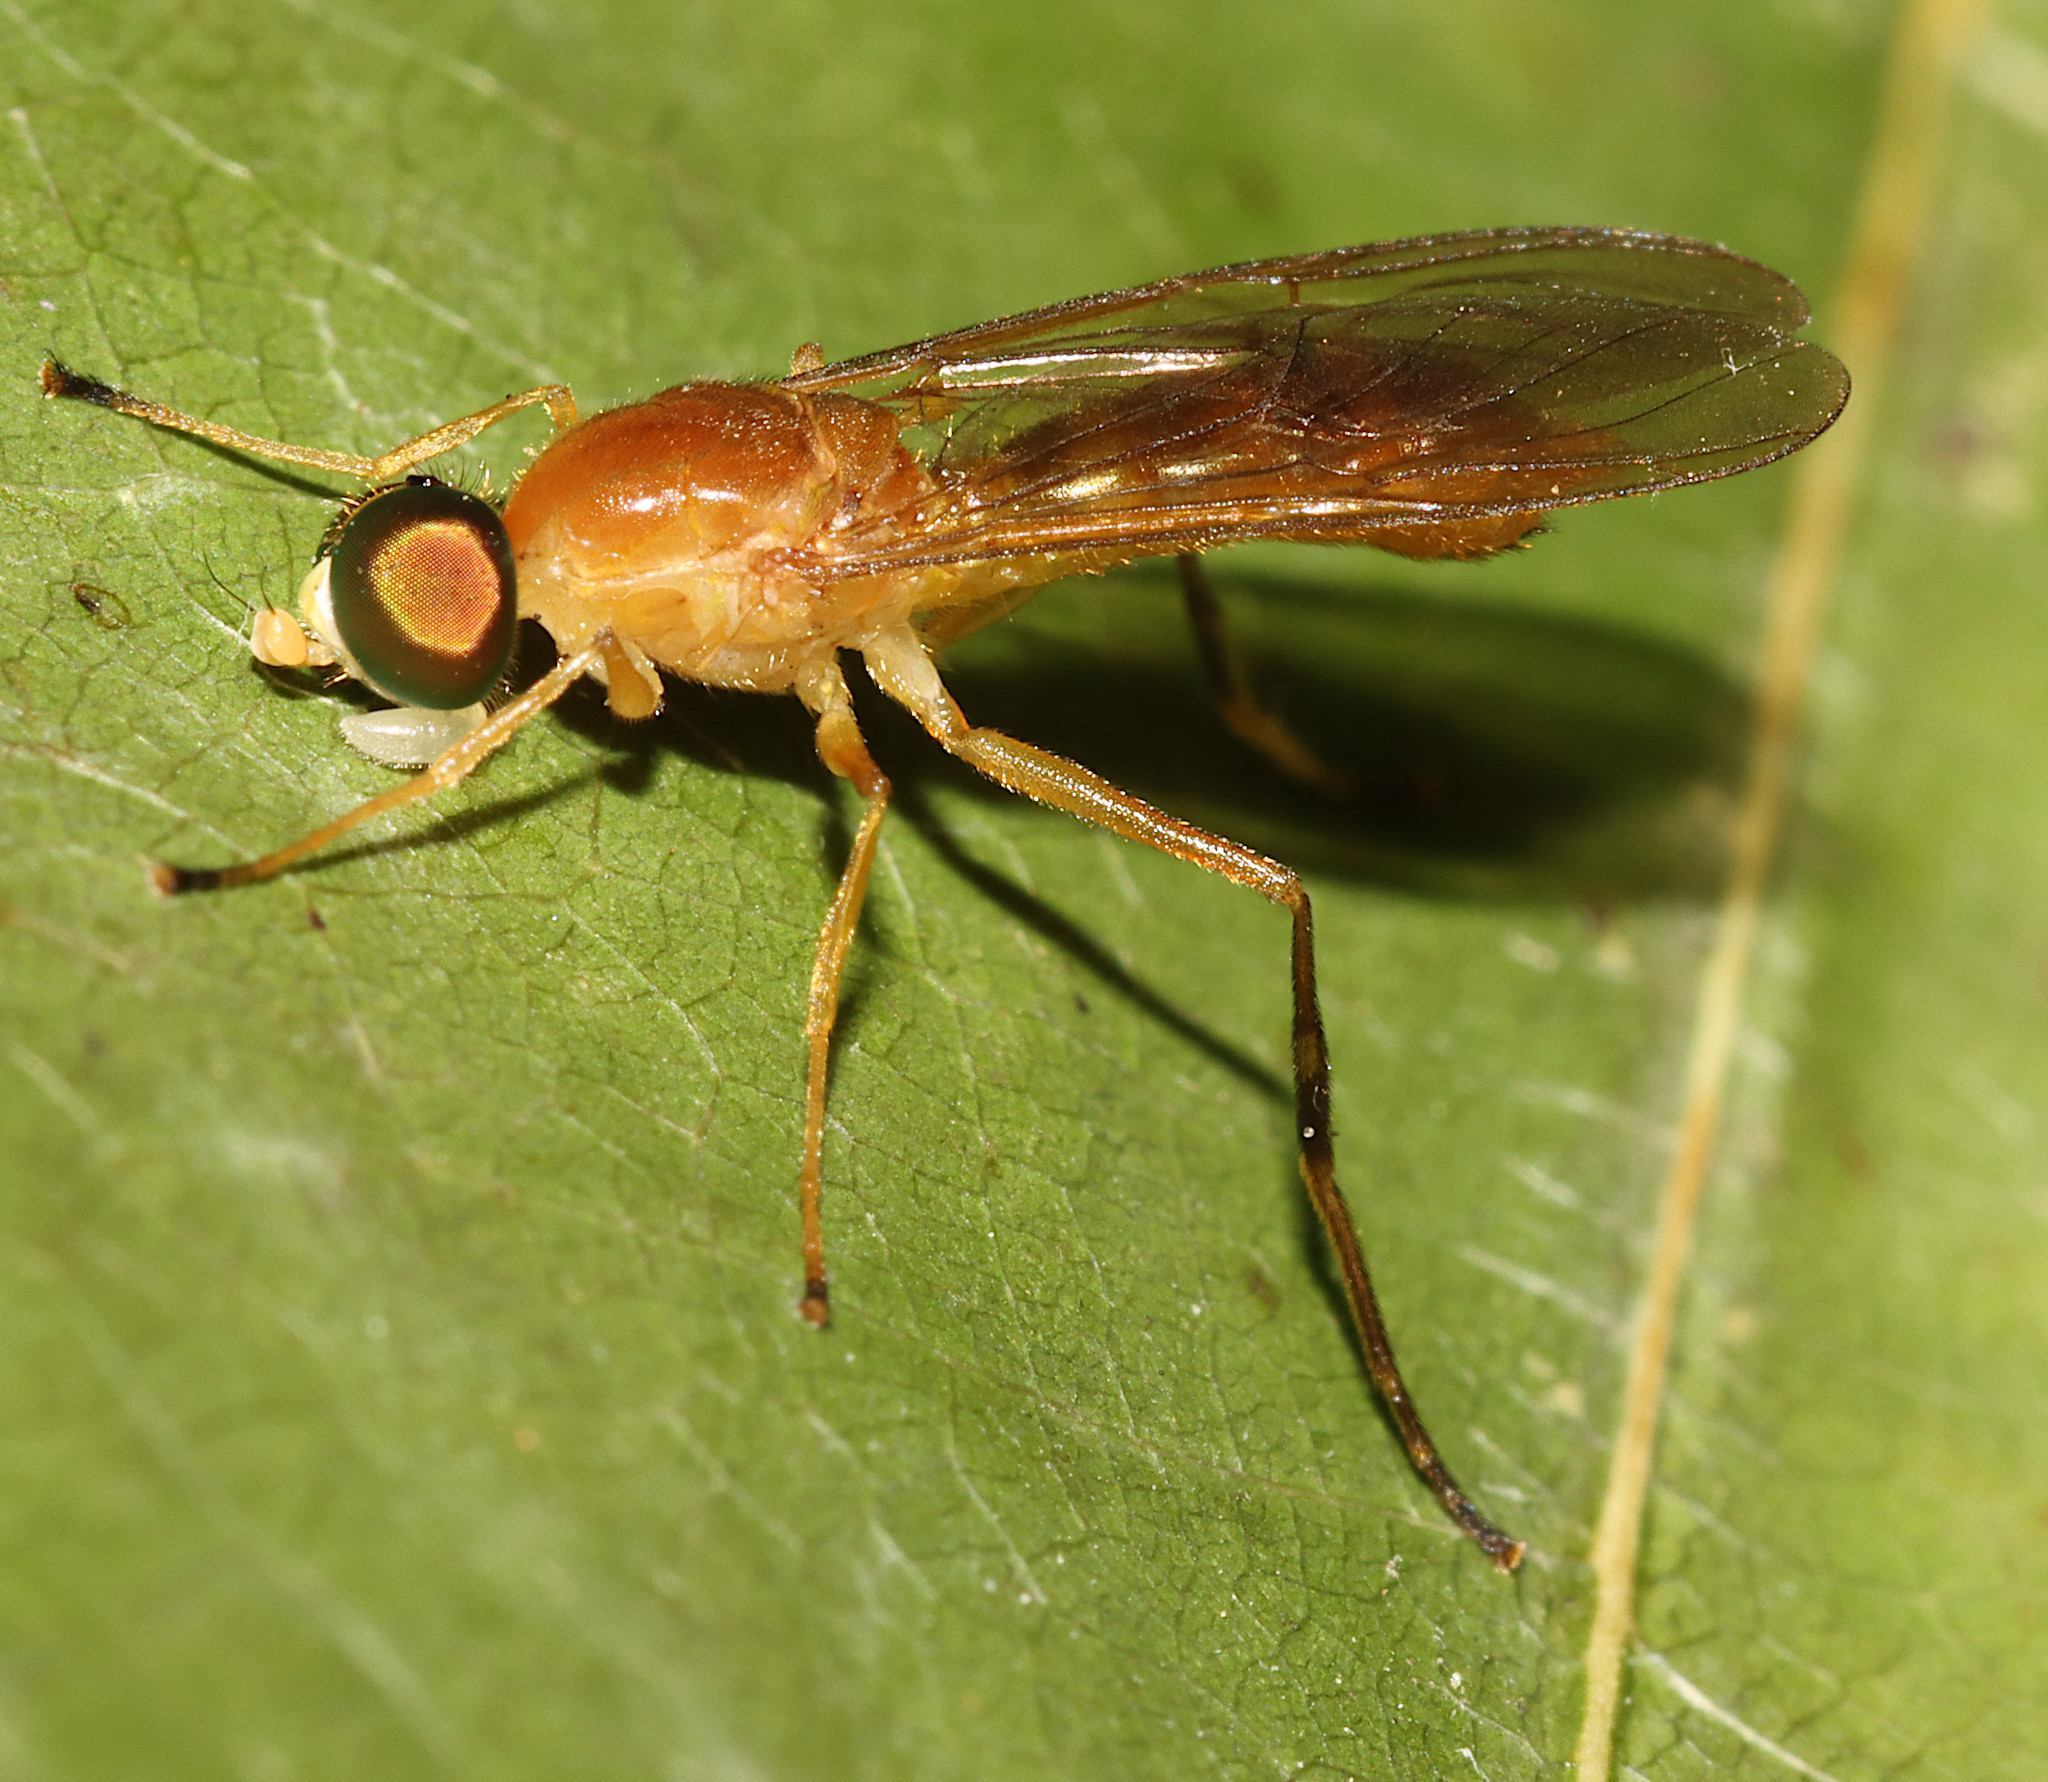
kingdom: Animalia
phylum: Arthropoda
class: Insecta
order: Diptera
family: Stratiomyidae
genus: Ptecticus
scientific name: Ptecticus trivittatus
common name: Compost fly
